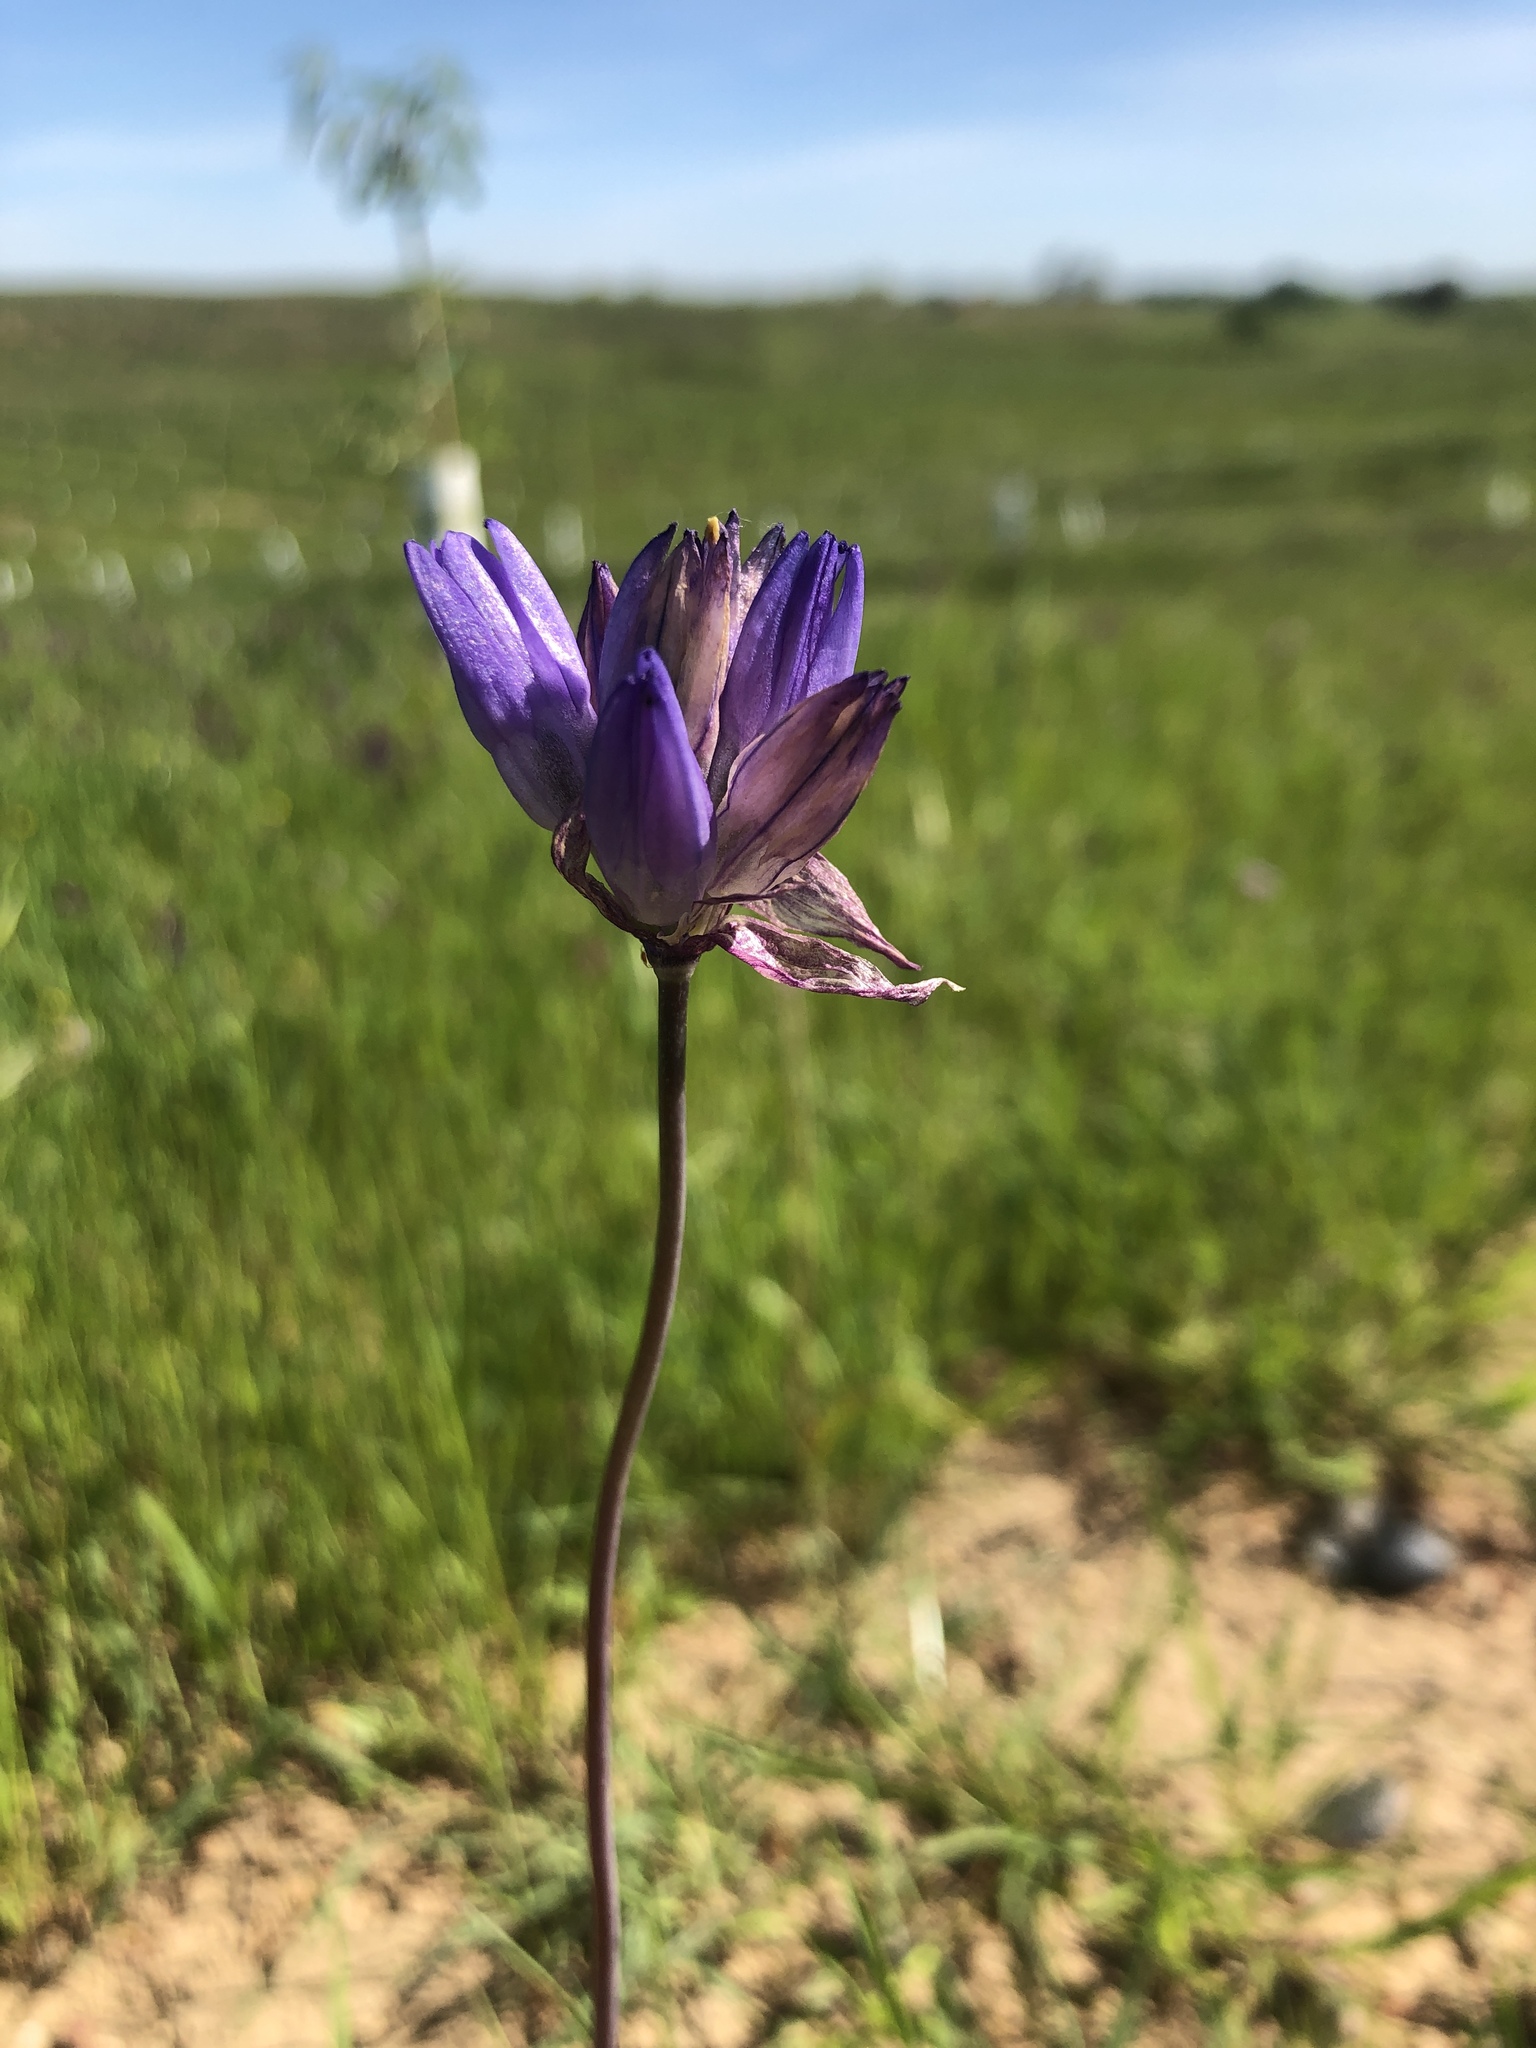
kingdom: Plantae
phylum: Tracheophyta
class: Liliopsida
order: Asparagales
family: Asparagaceae
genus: Dipterostemon
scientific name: Dipterostemon capitatus
